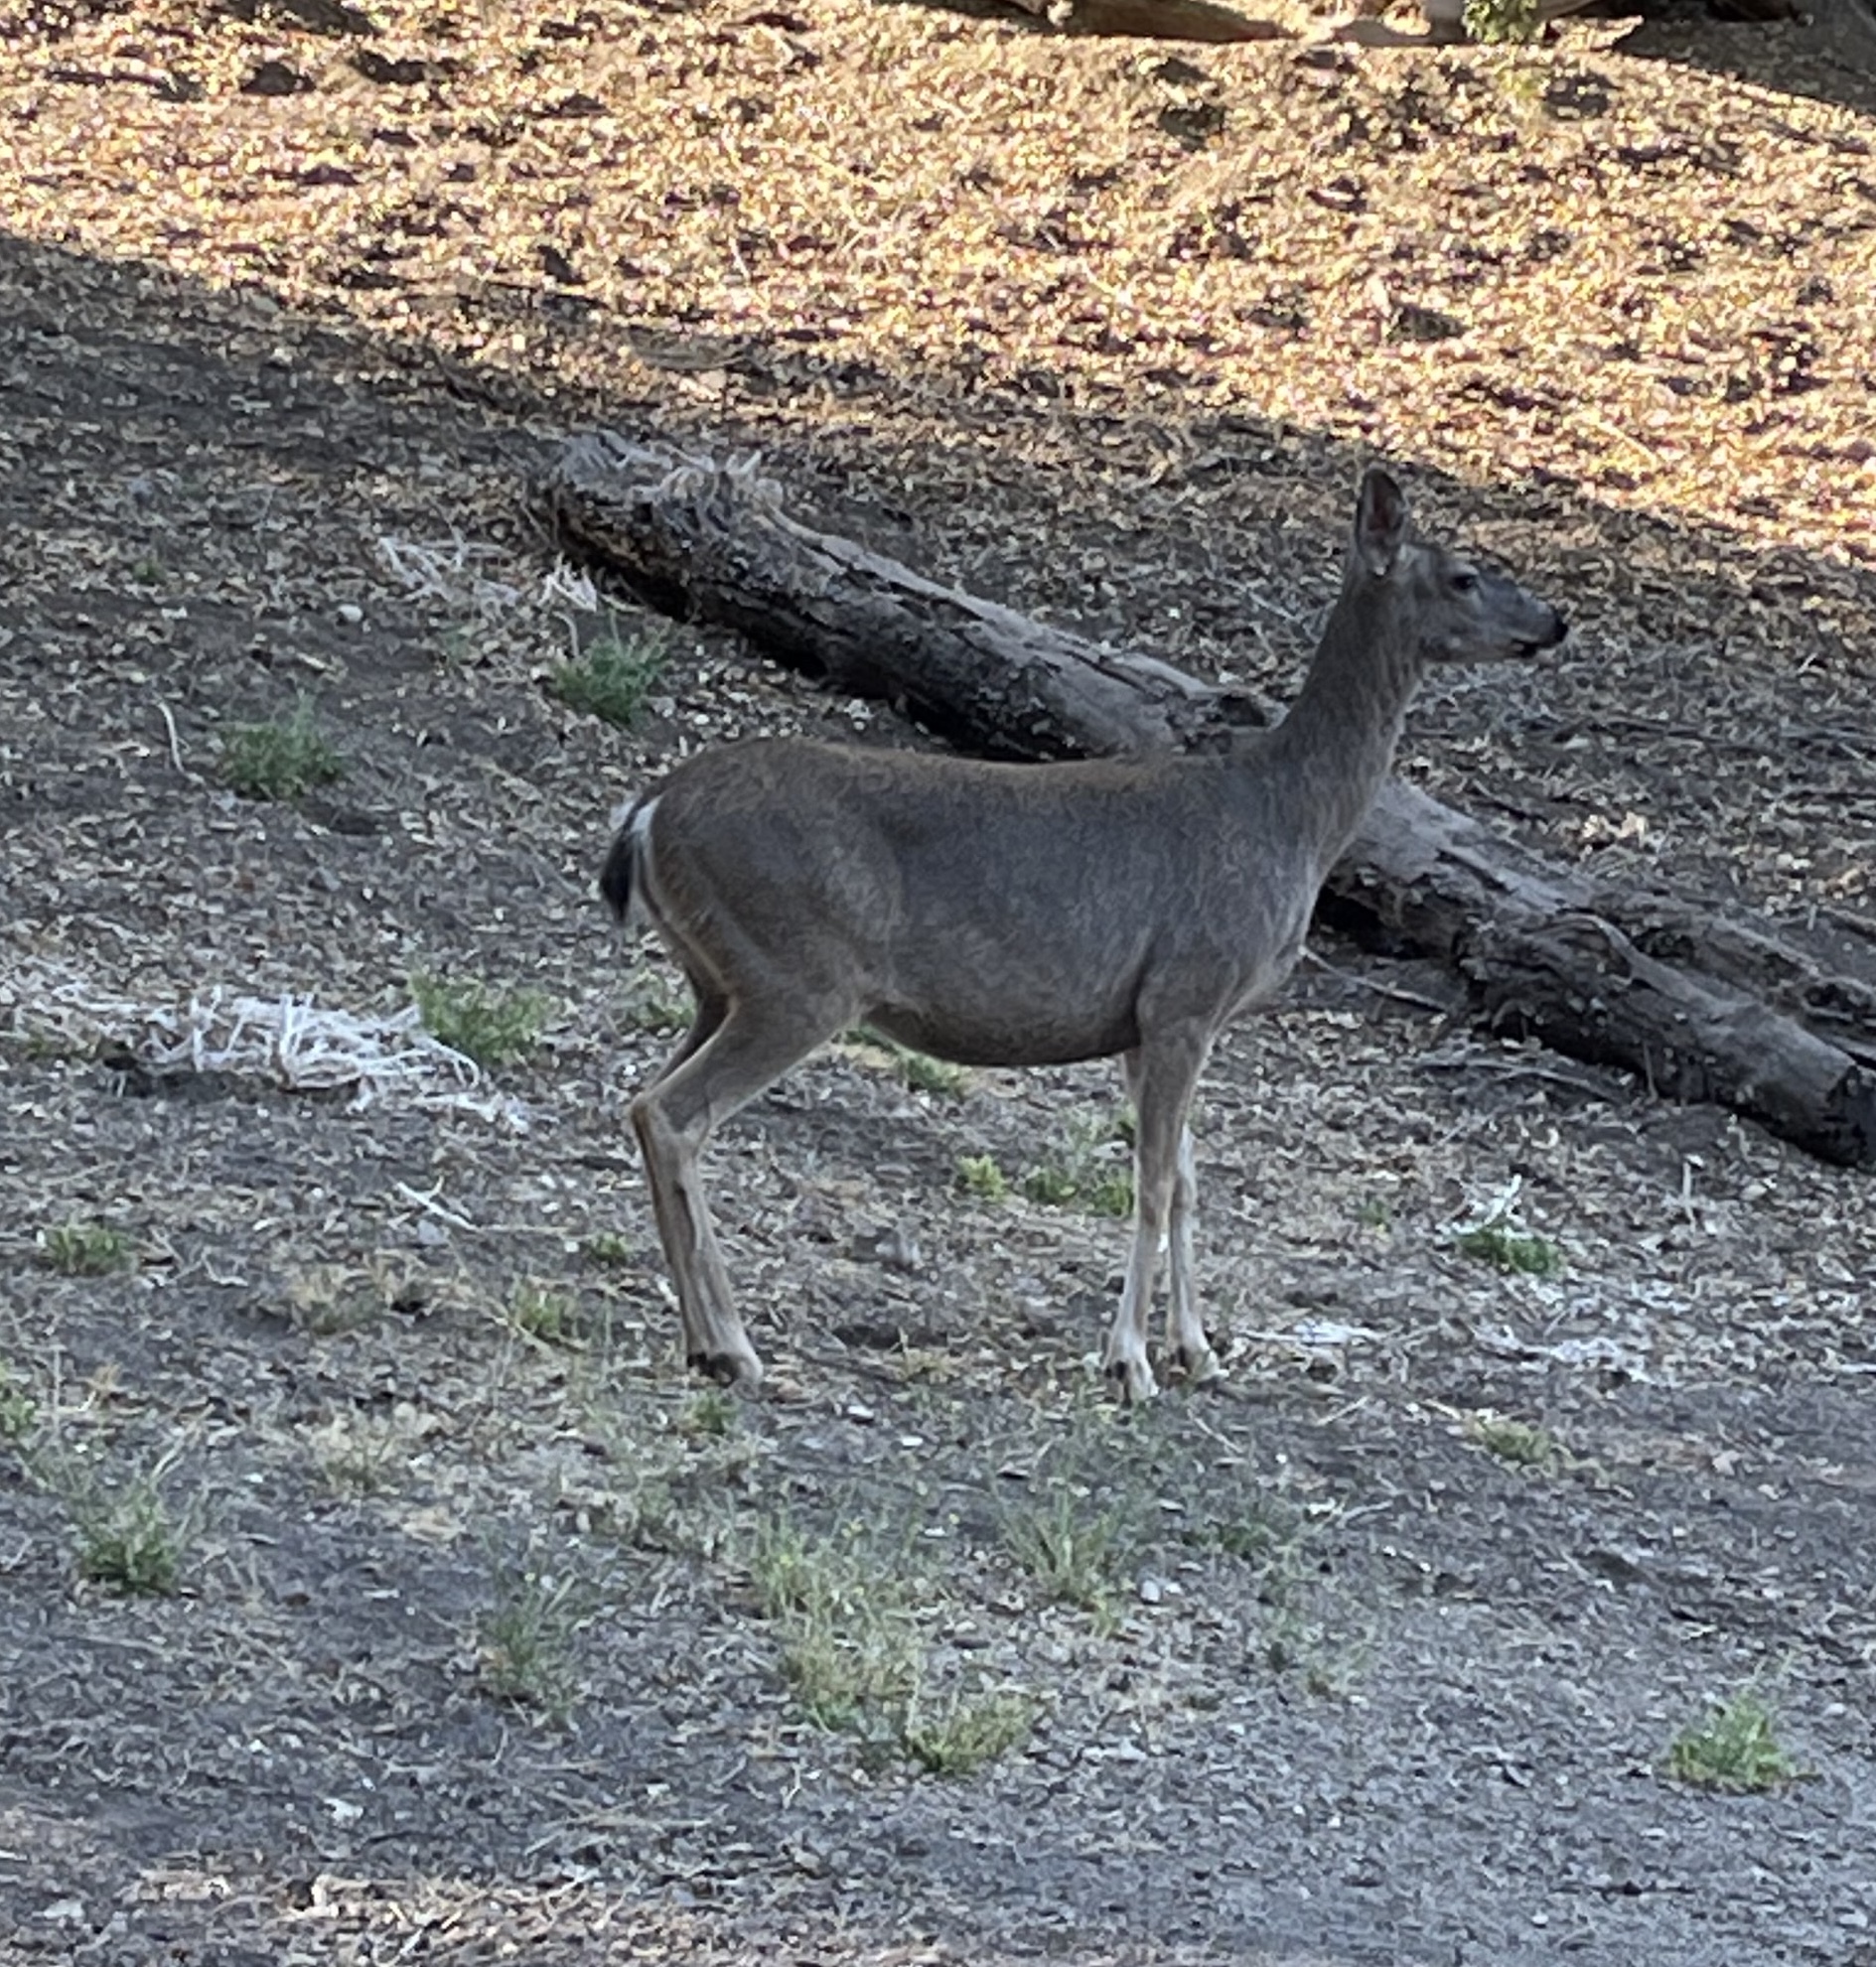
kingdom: Animalia
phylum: Chordata
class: Mammalia
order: Artiodactyla
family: Cervidae
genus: Odocoileus
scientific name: Odocoileus hemionus
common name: Mule deer
